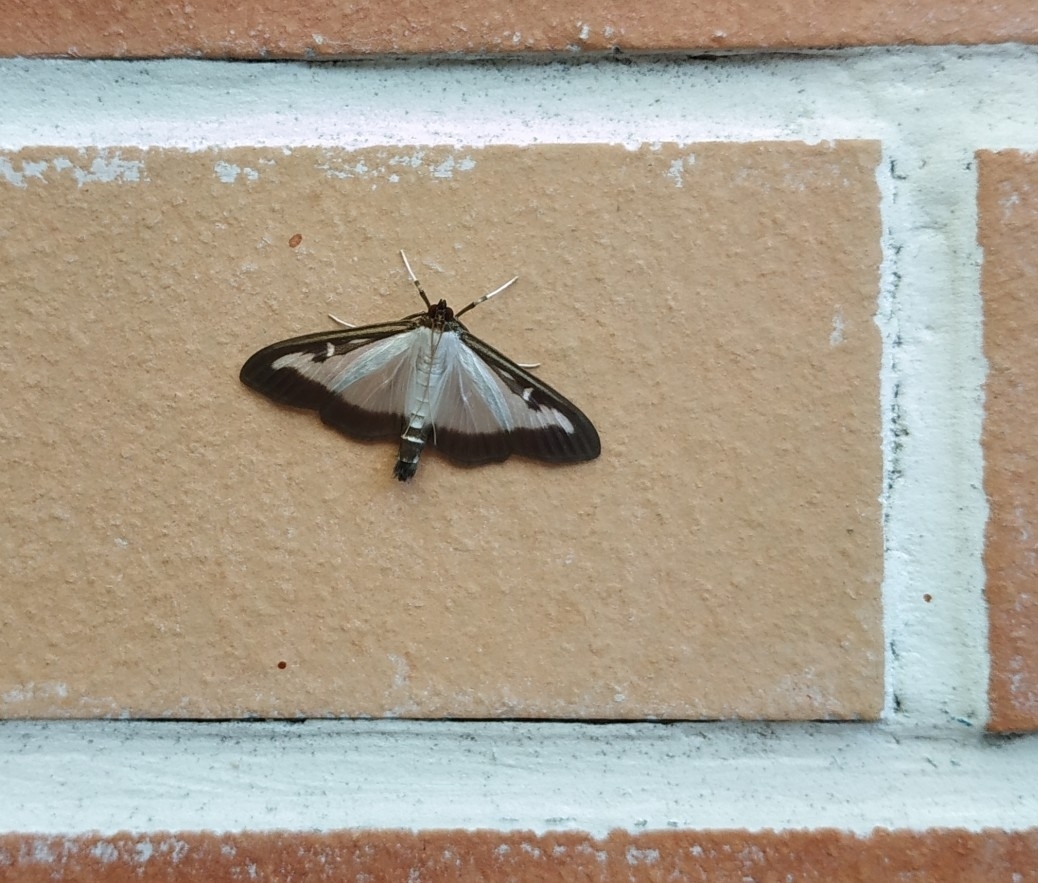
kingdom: Animalia
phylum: Arthropoda
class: Insecta
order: Lepidoptera
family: Crambidae
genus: Cydalima
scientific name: Cydalima perspectalis
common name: Box tree moth
